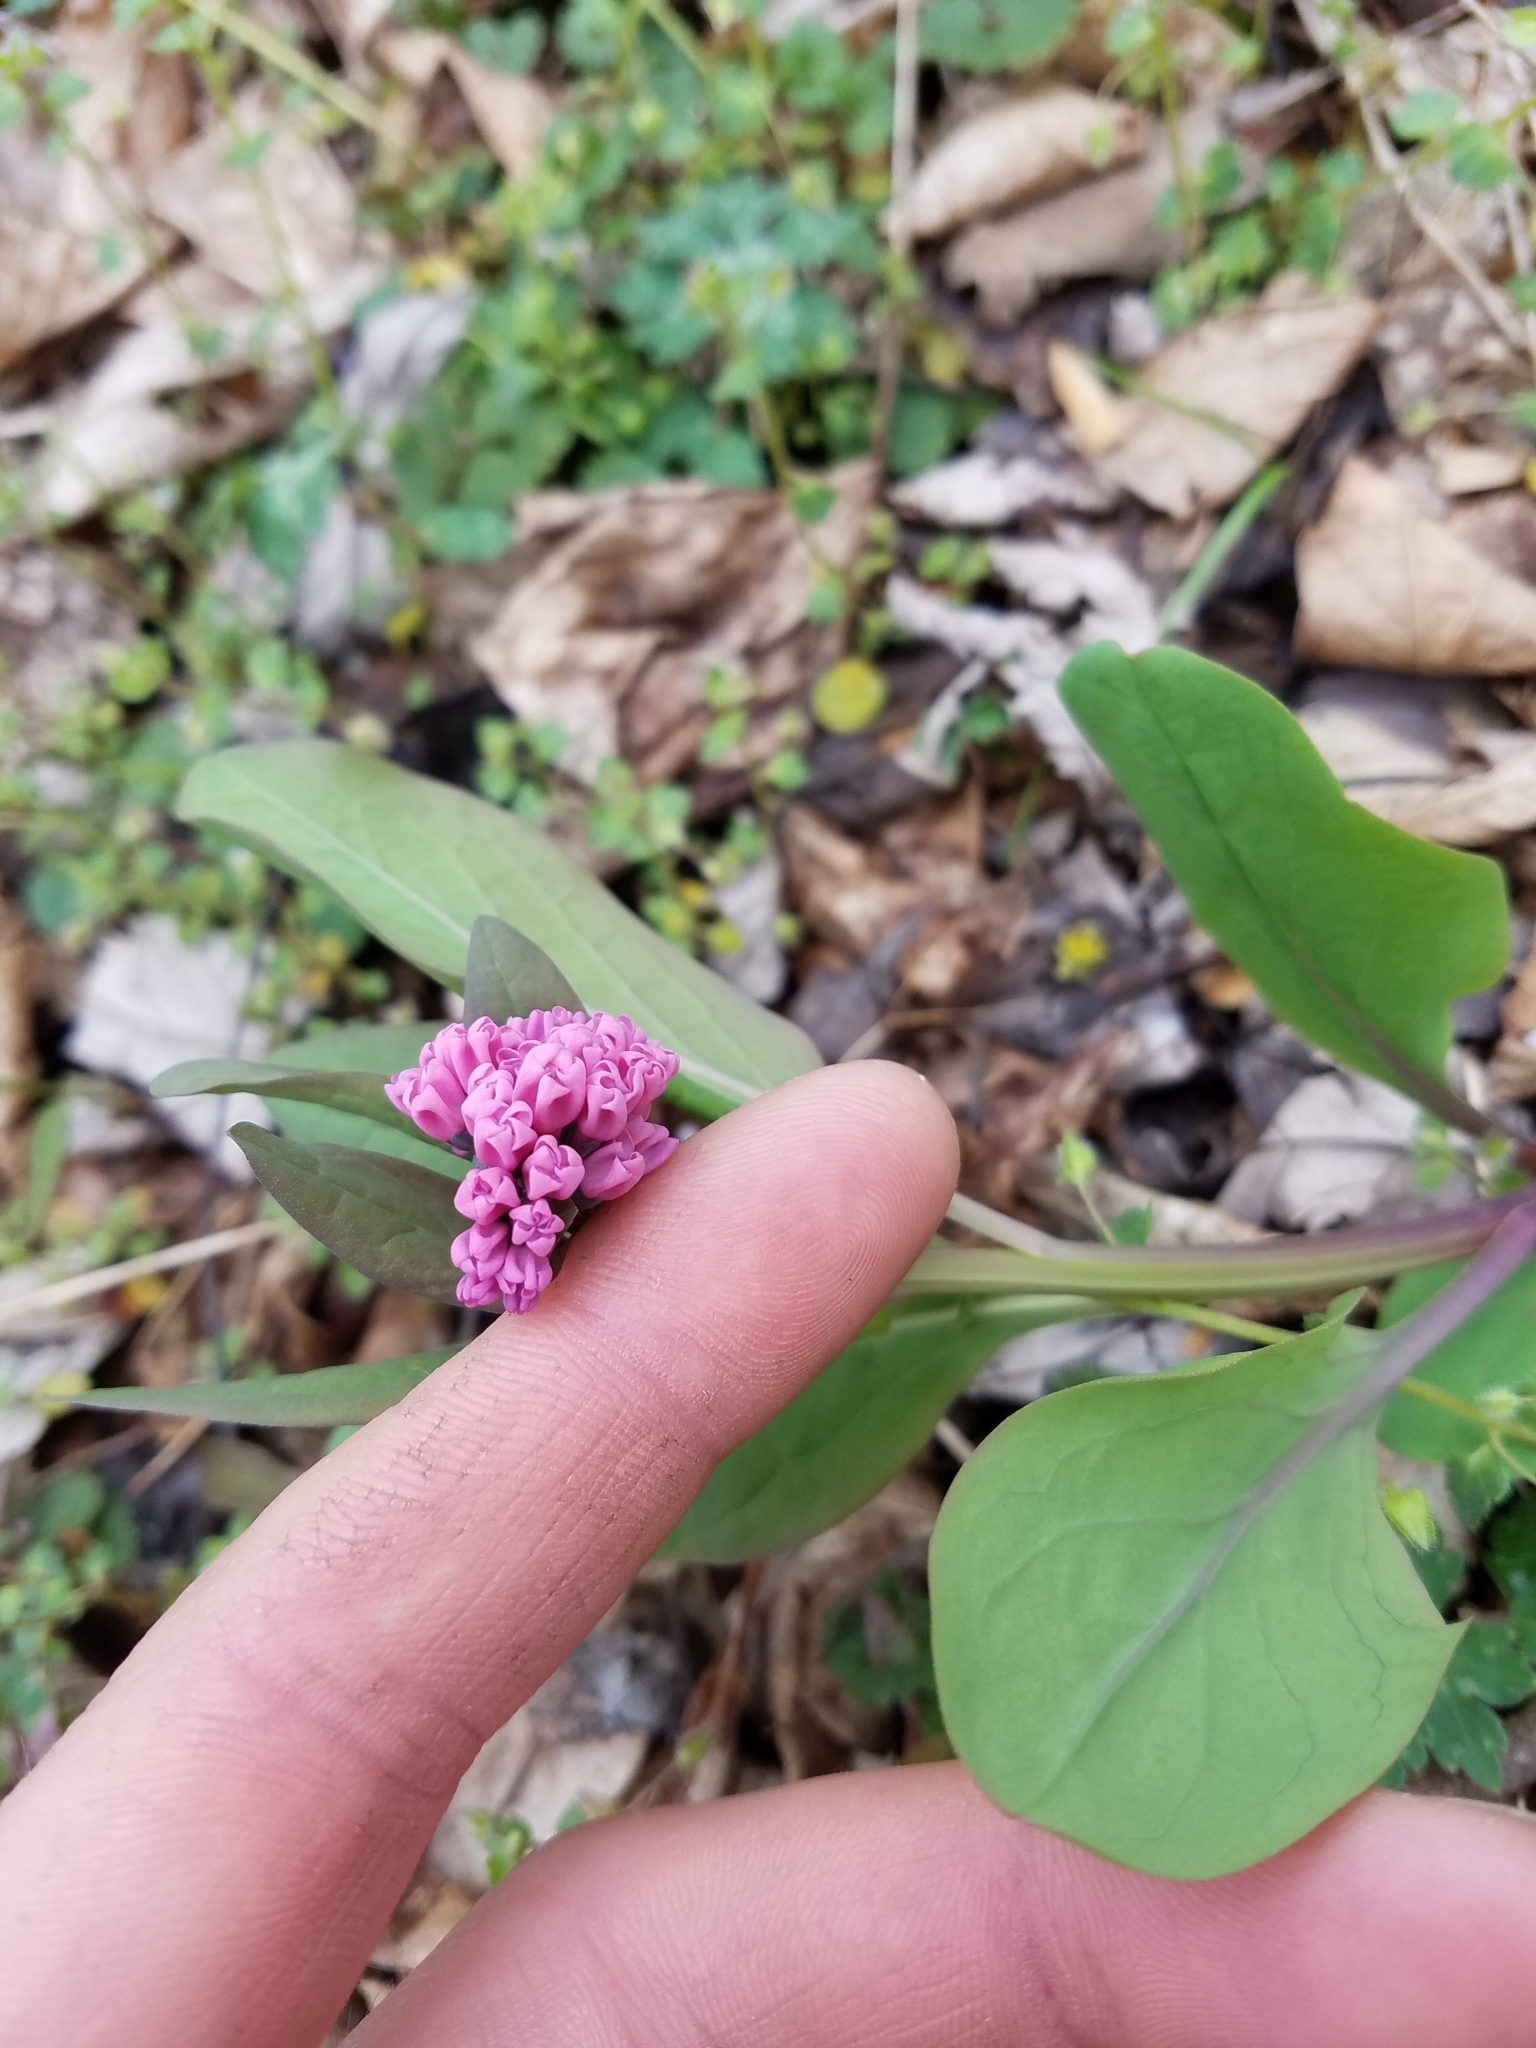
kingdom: Plantae
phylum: Tracheophyta
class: Magnoliopsida
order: Boraginales
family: Boraginaceae
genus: Mertensia
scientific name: Mertensia virginica
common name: Virginia bluebells
